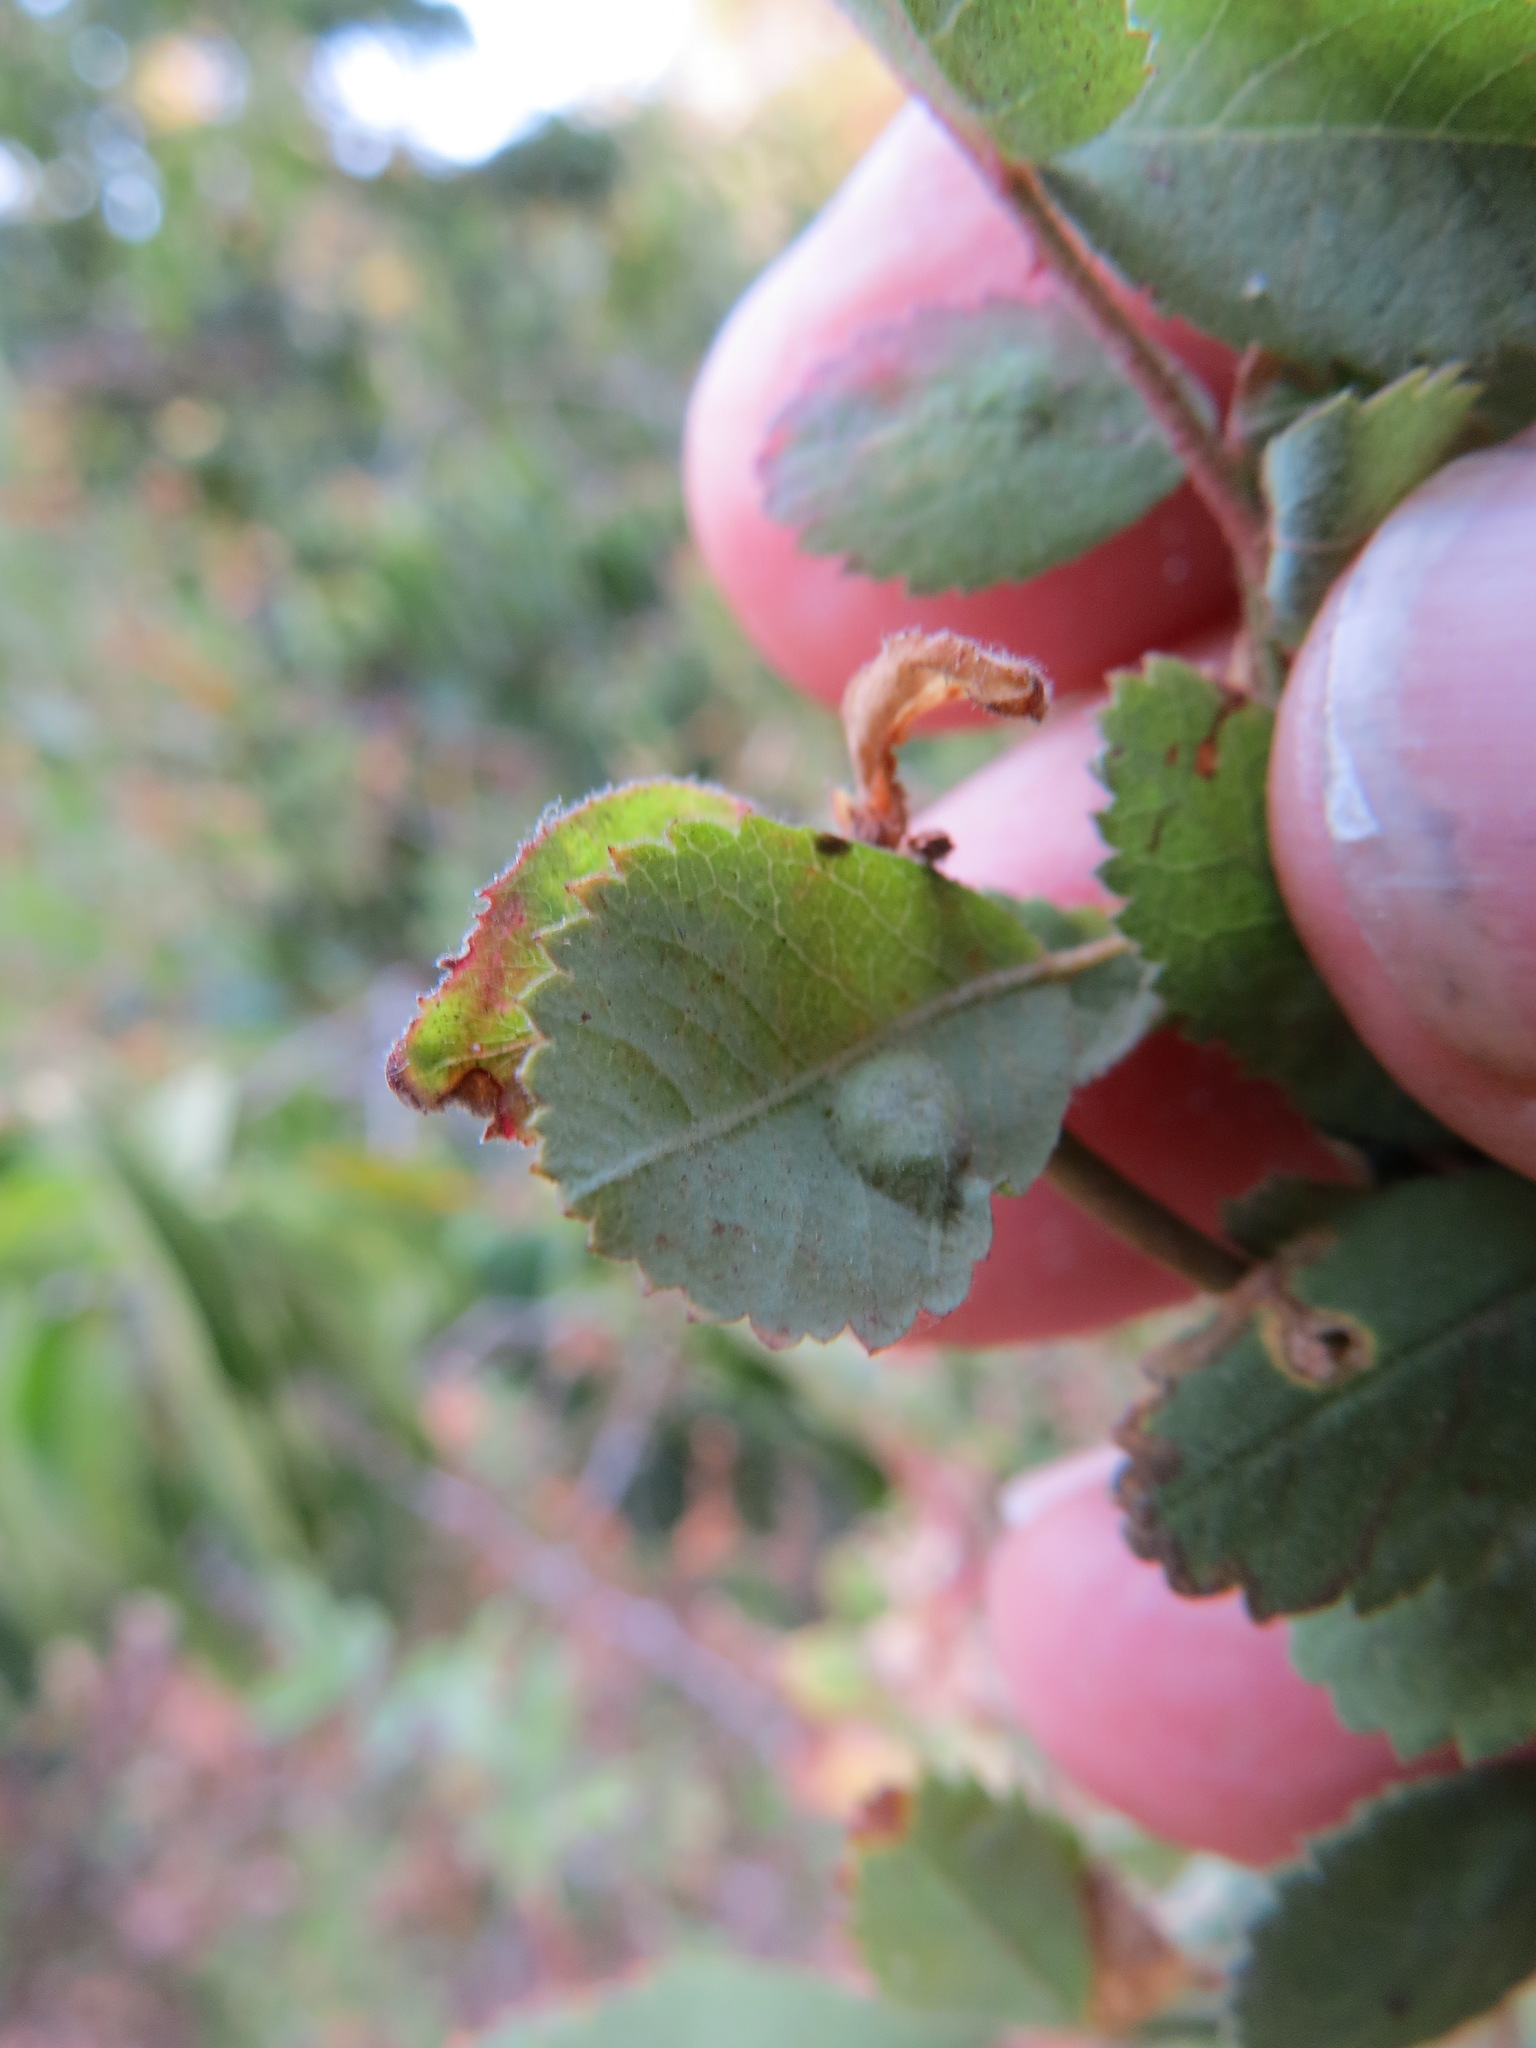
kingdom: Animalia
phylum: Arthropoda
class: Insecta
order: Hymenoptera
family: Cynipidae
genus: Diplolepis
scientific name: Diplolepis rosaefolii
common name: Blister-gall wasp
